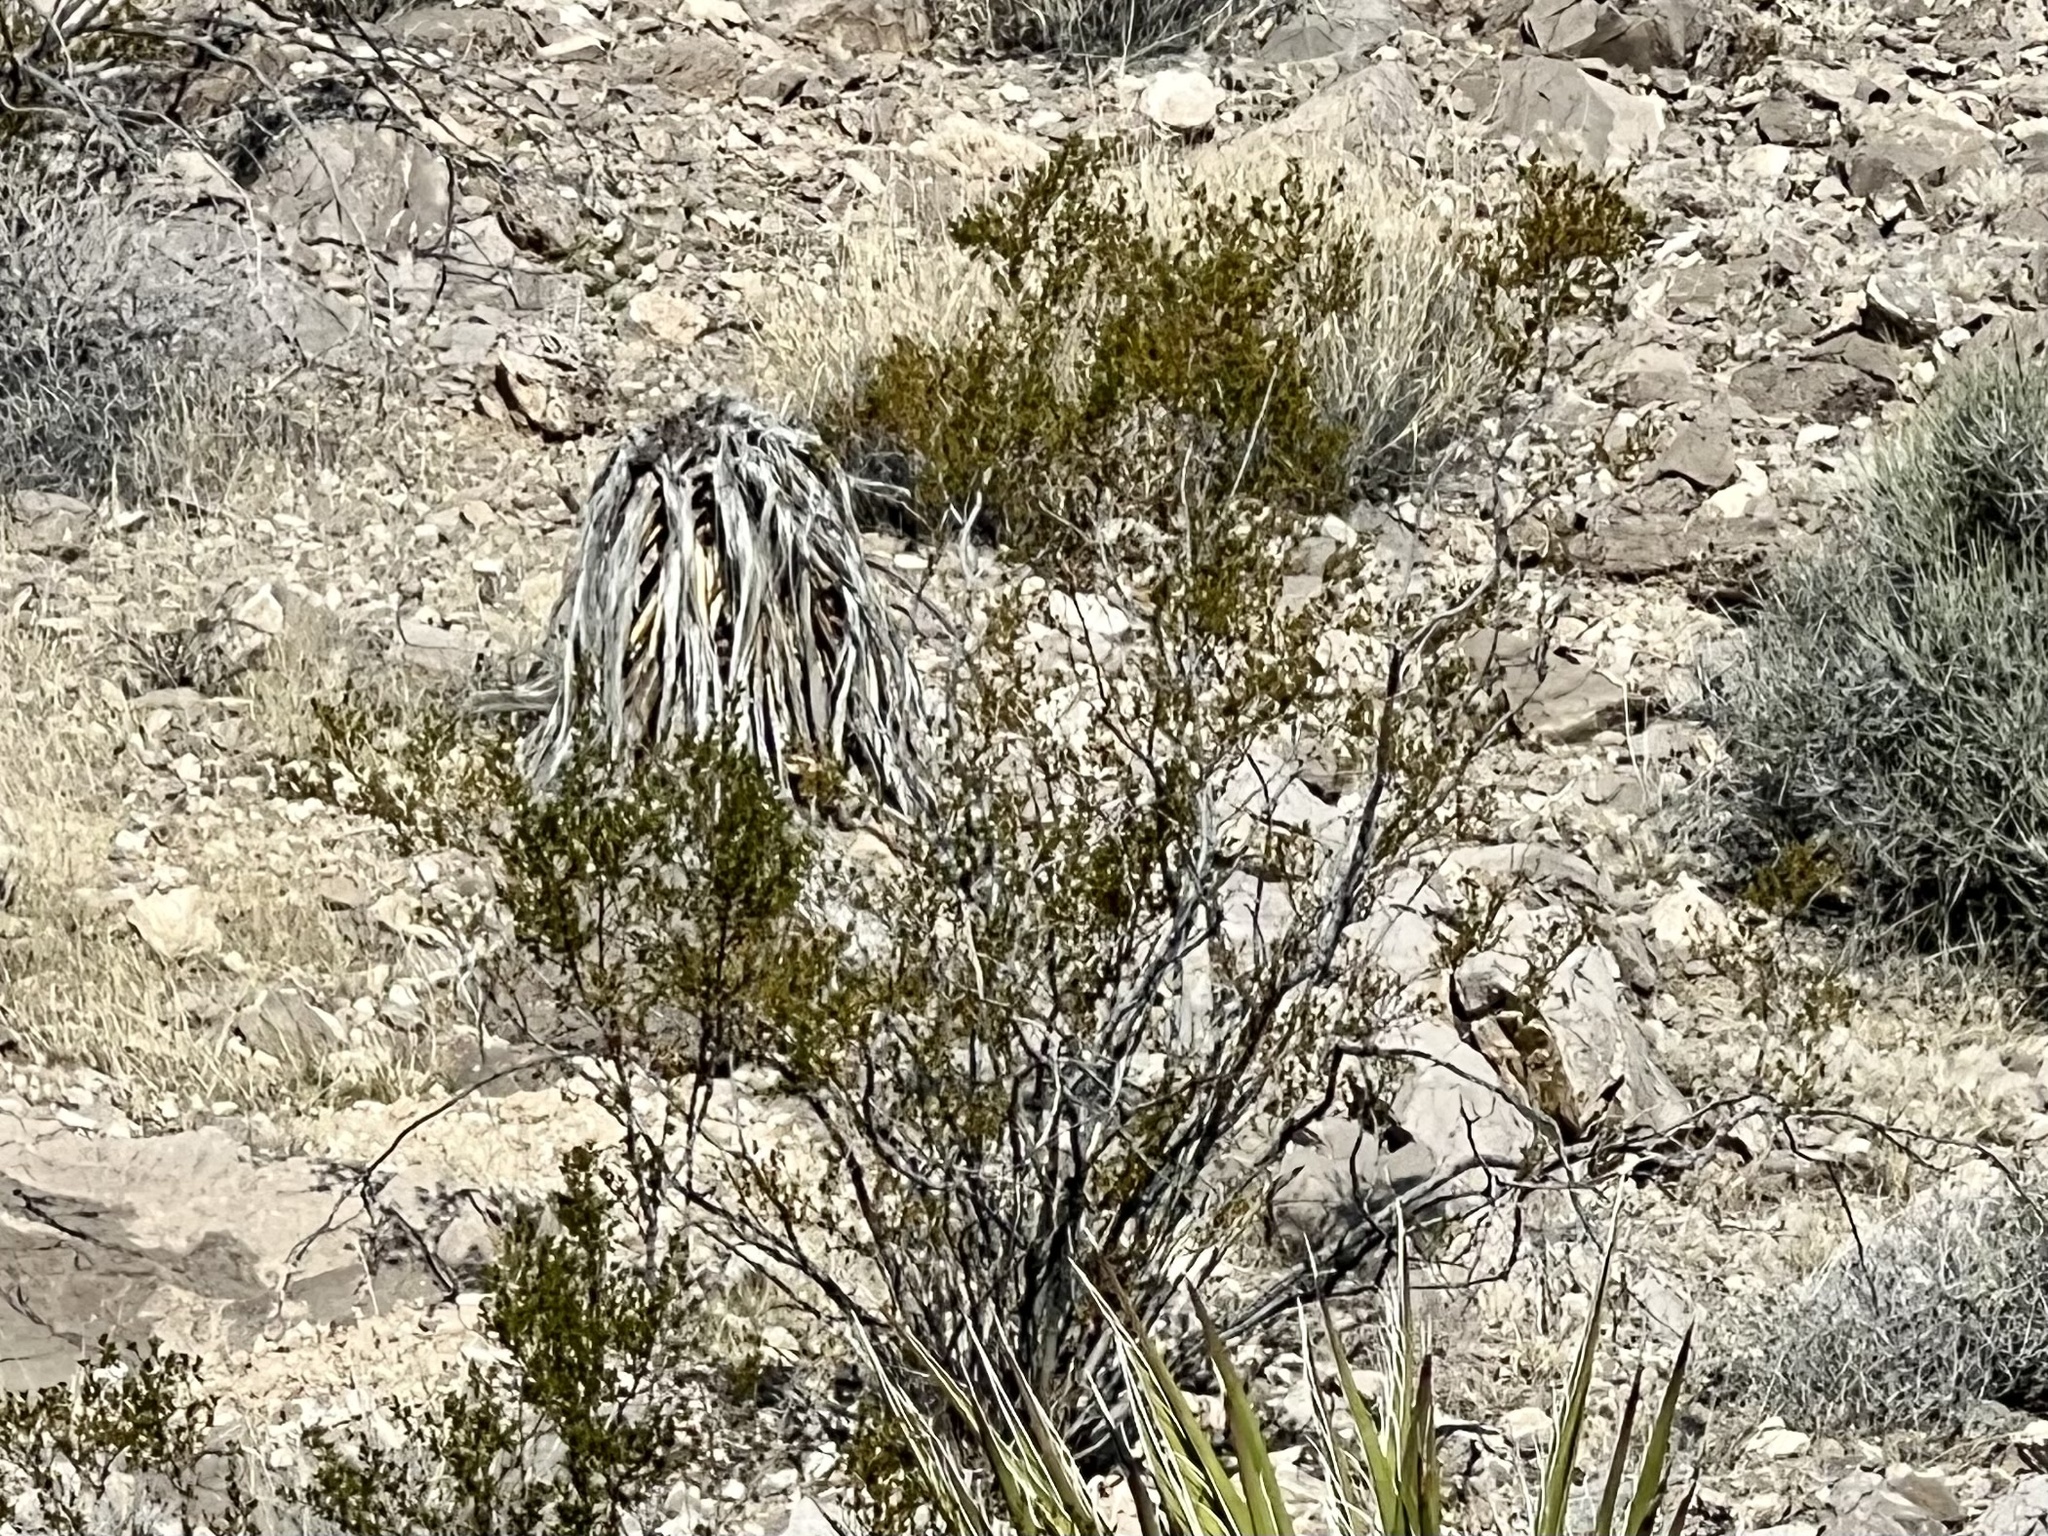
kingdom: Plantae
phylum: Tracheophyta
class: Magnoliopsida
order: Zygophyllales
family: Zygophyllaceae
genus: Larrea
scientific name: Larrea tridentata
